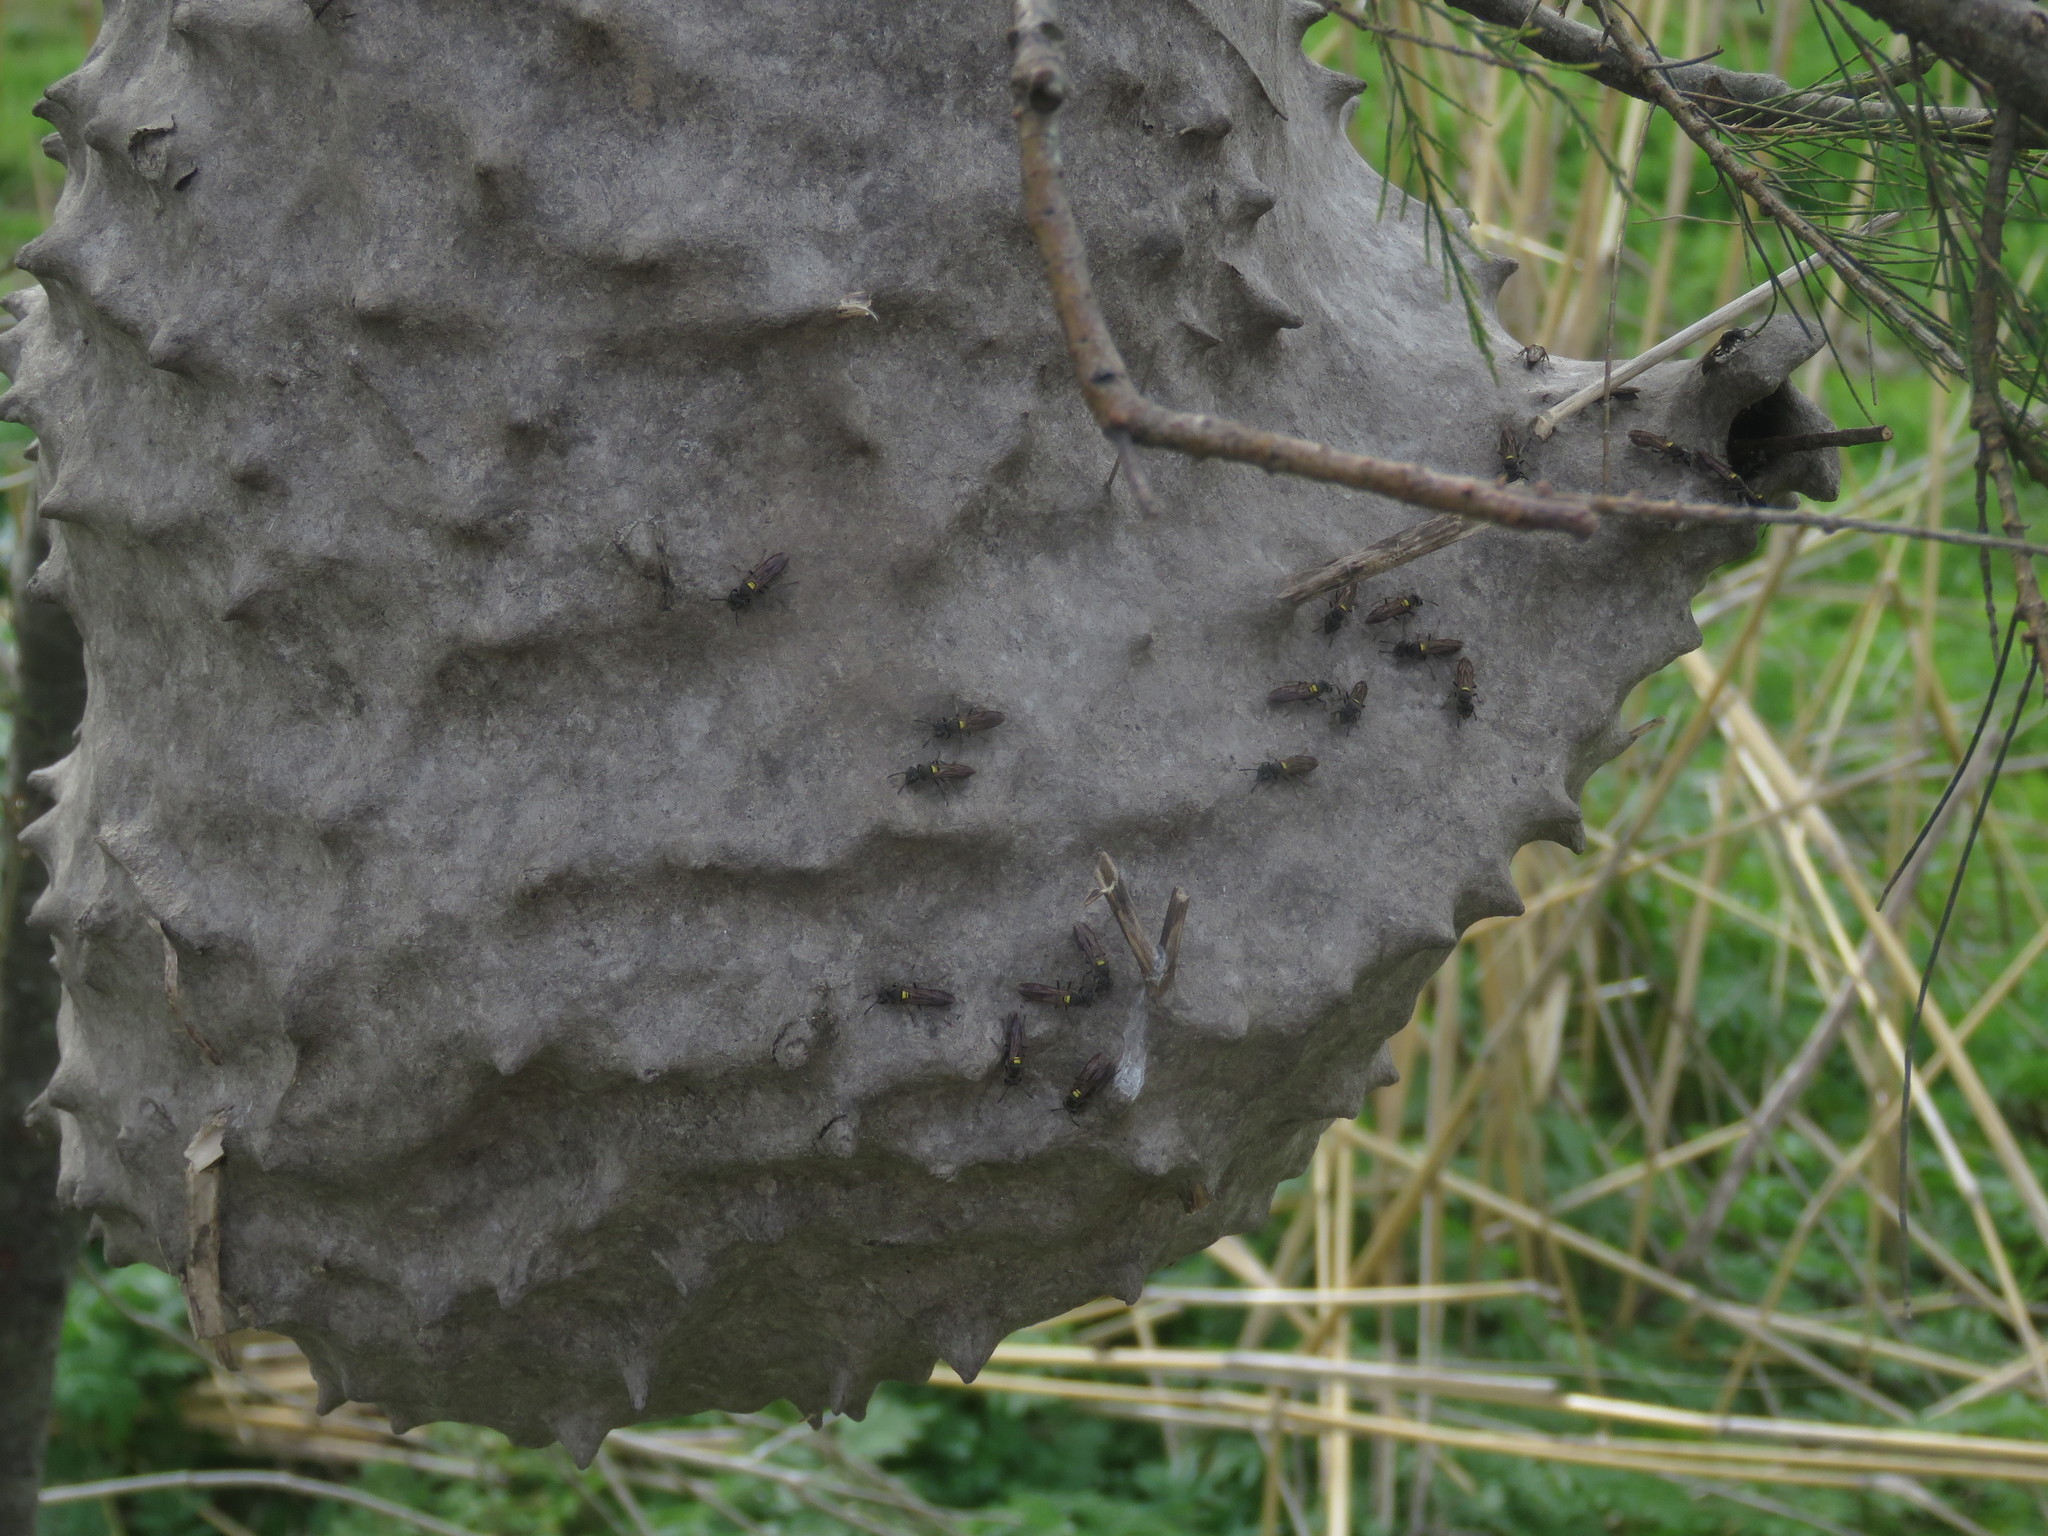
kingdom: Animalia
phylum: Arthropoda
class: Insecta
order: Hymenoptera
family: Eumenidae
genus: Polybia
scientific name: Polybia scutellaris
